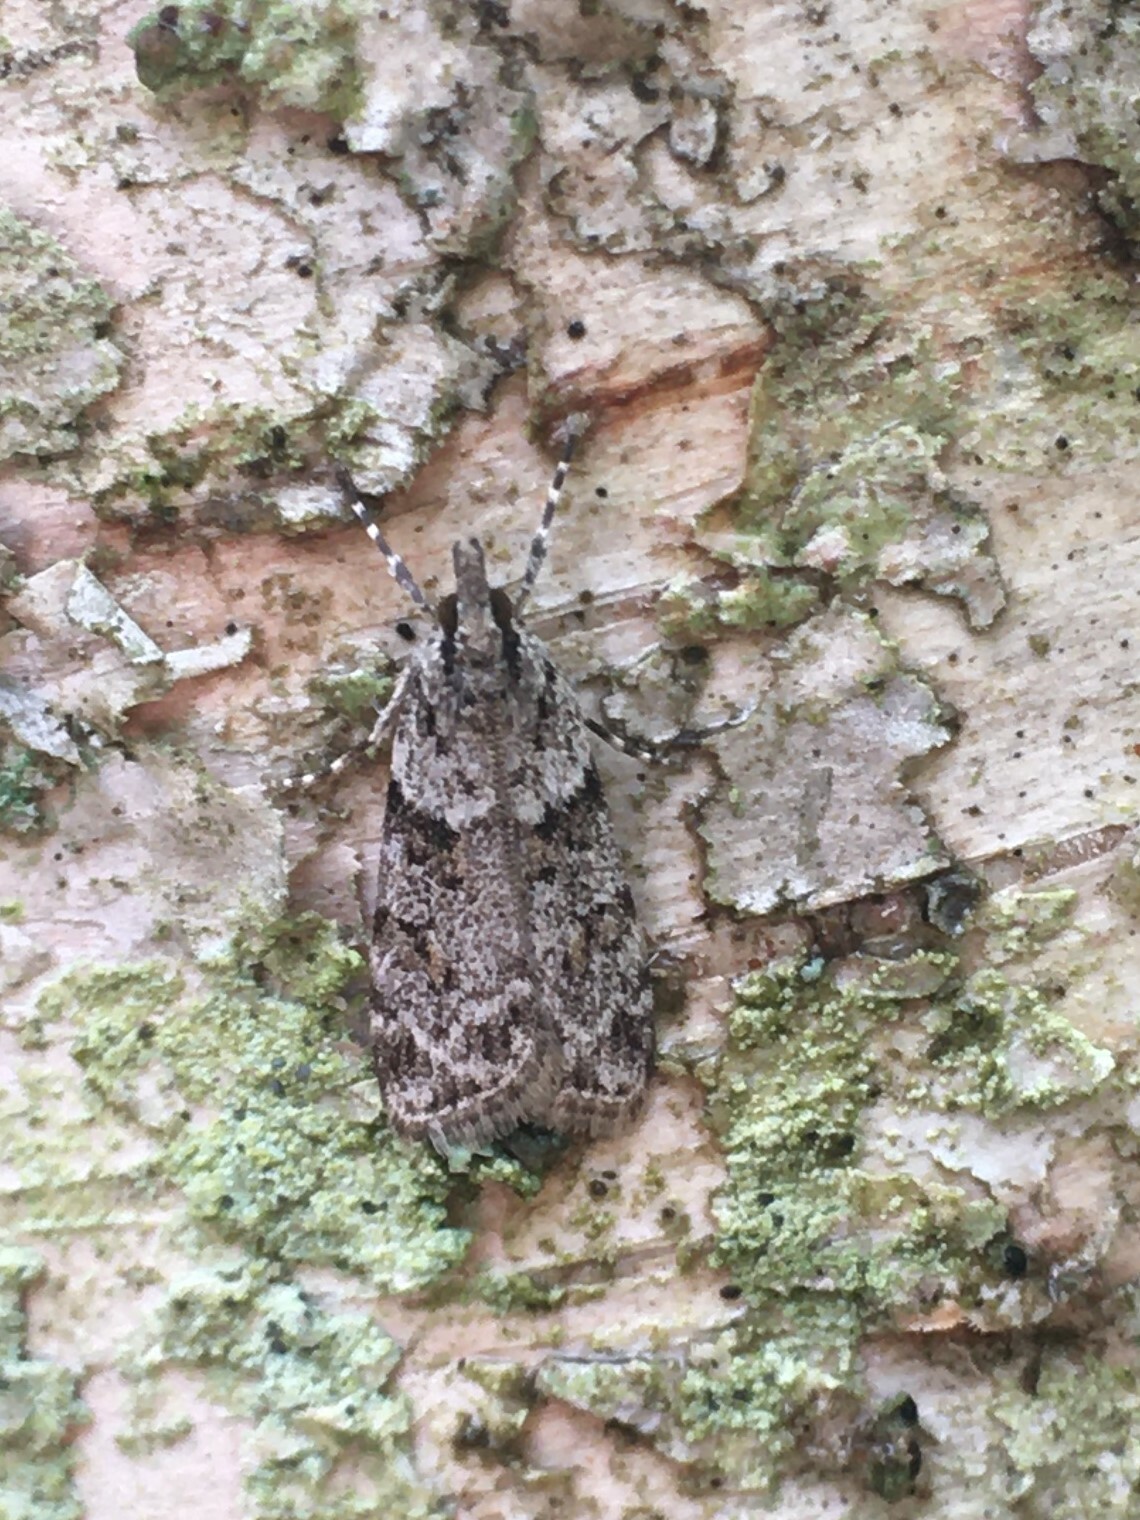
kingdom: Animalia
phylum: Arthropoda
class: Insecta
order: Lepidoptera
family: Crambidae
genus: Scoparia
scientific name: Scoparia biplagialis
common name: Double-striped scoparia moth
